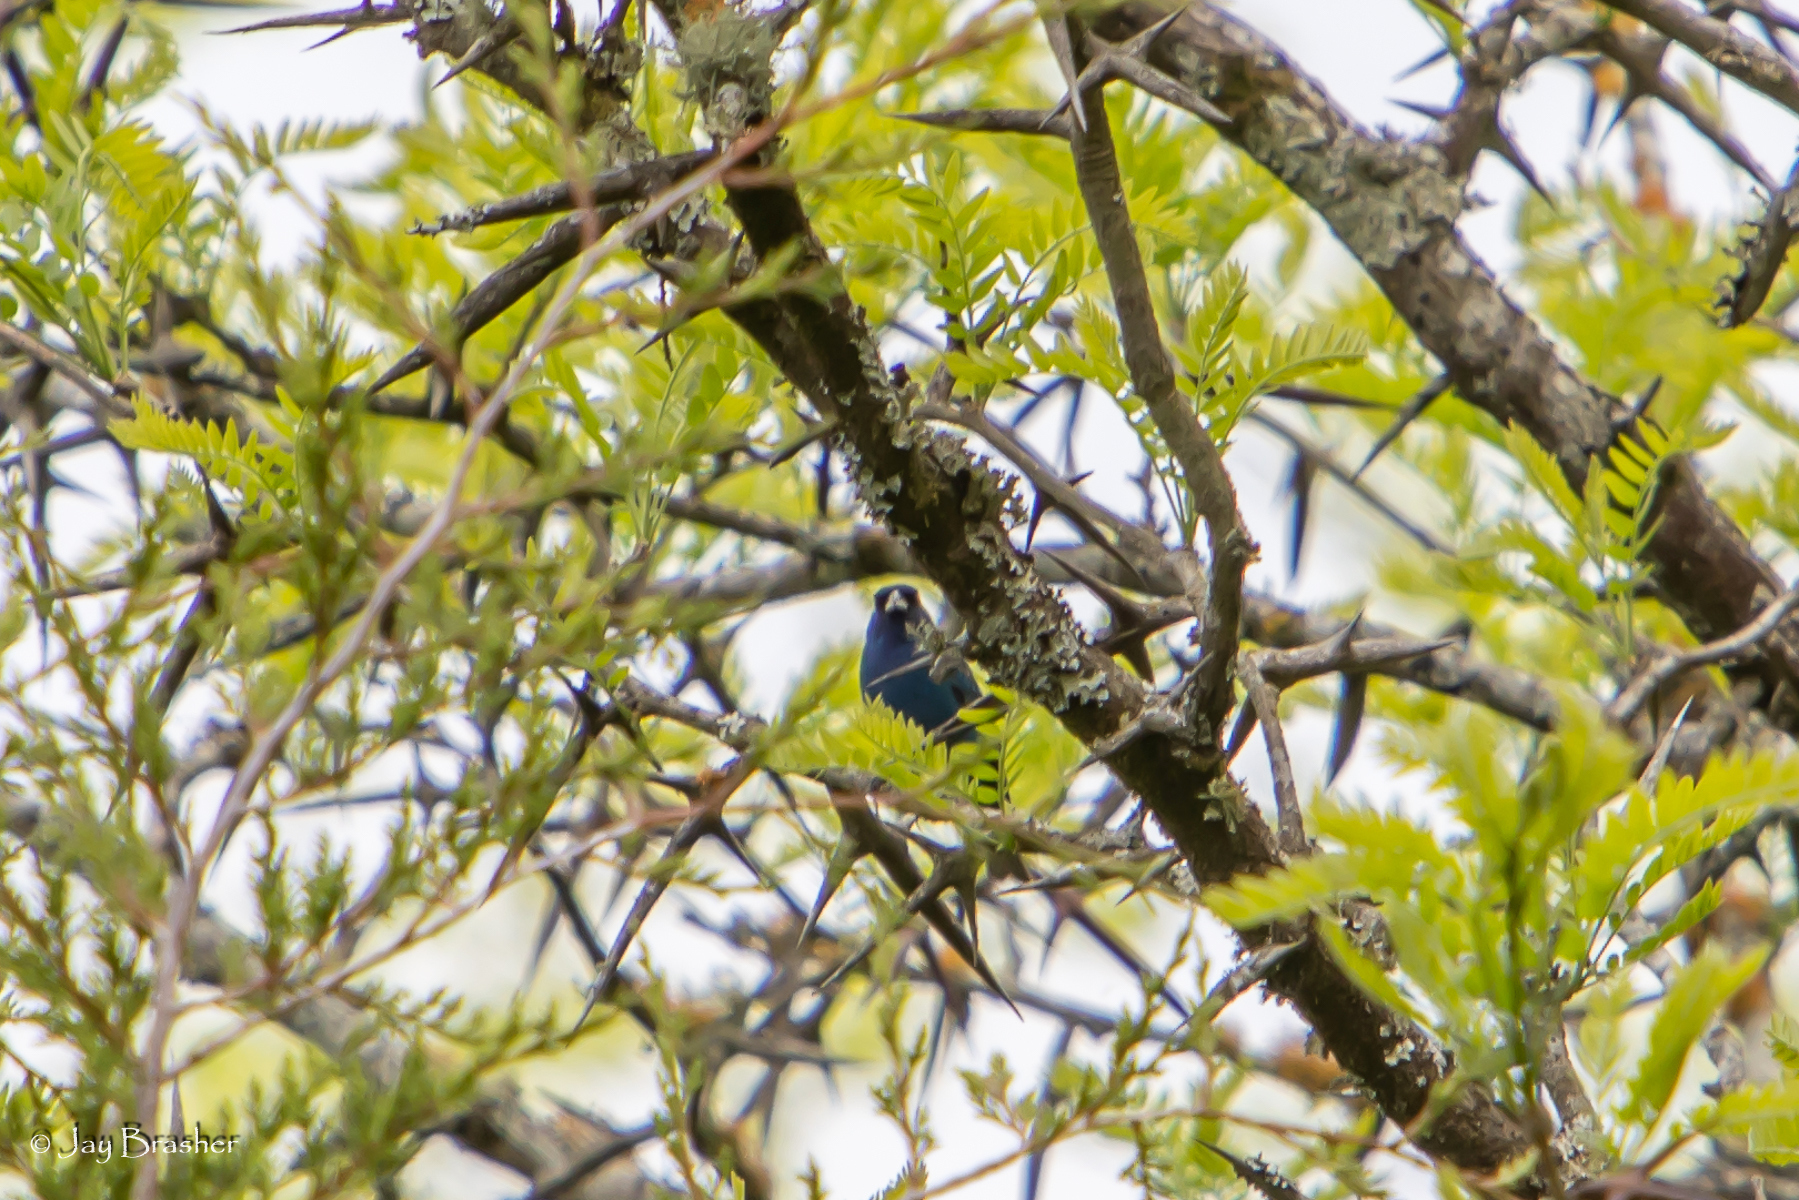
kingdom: Animalia
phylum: Chordata
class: Aves
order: Passeriformes
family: Cardinalidae
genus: Passerina
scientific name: Passerina cyanea
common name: Indigo bunting
